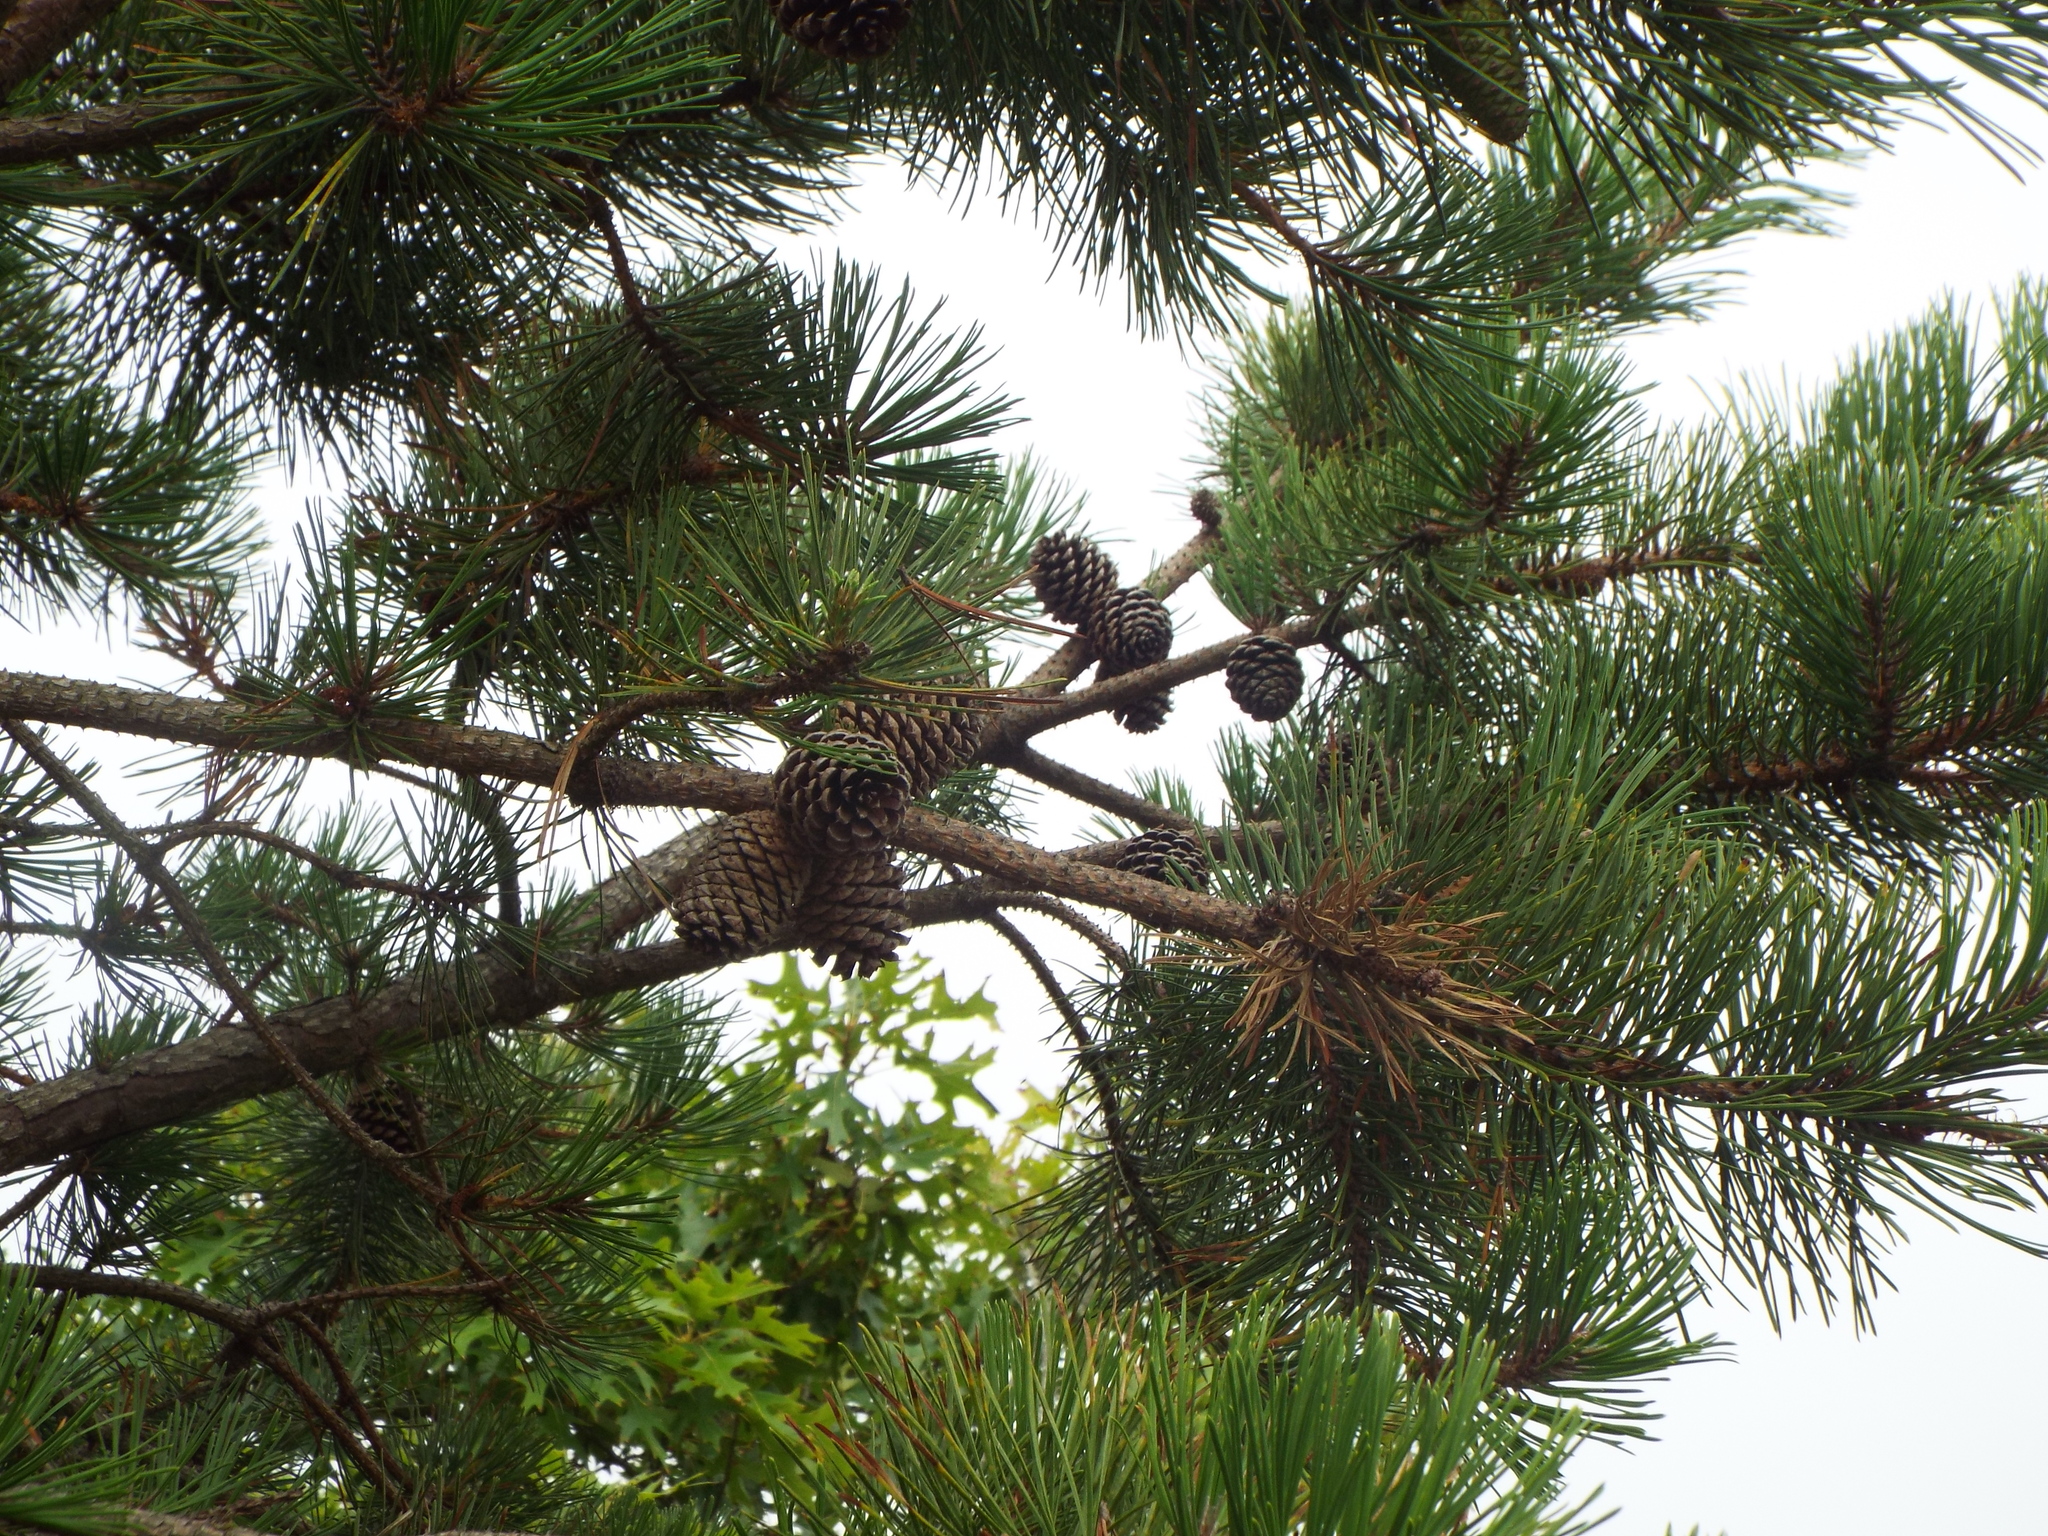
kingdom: Plantae
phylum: Tracheophyta
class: Pinopsida
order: Pinales
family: Pinaceae
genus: Pinus
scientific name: Pinus rigida
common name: Pitch pine
